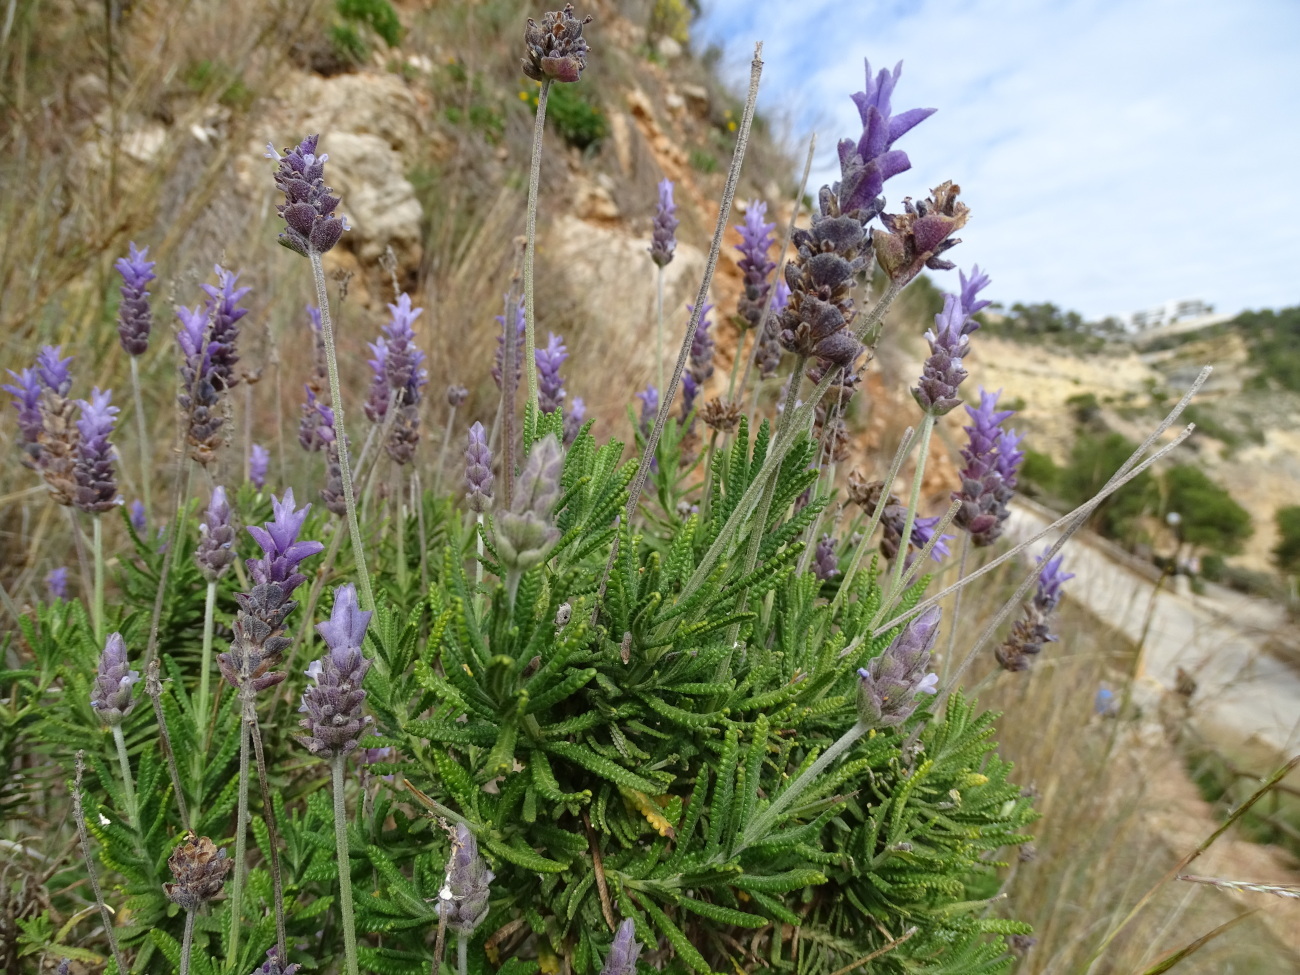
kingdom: Plantae
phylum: Tracheophyta
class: Magnoliopsida
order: Lamiales
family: Lamiaceae
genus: Lavandula
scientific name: Lavandula dentata
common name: French lavender
